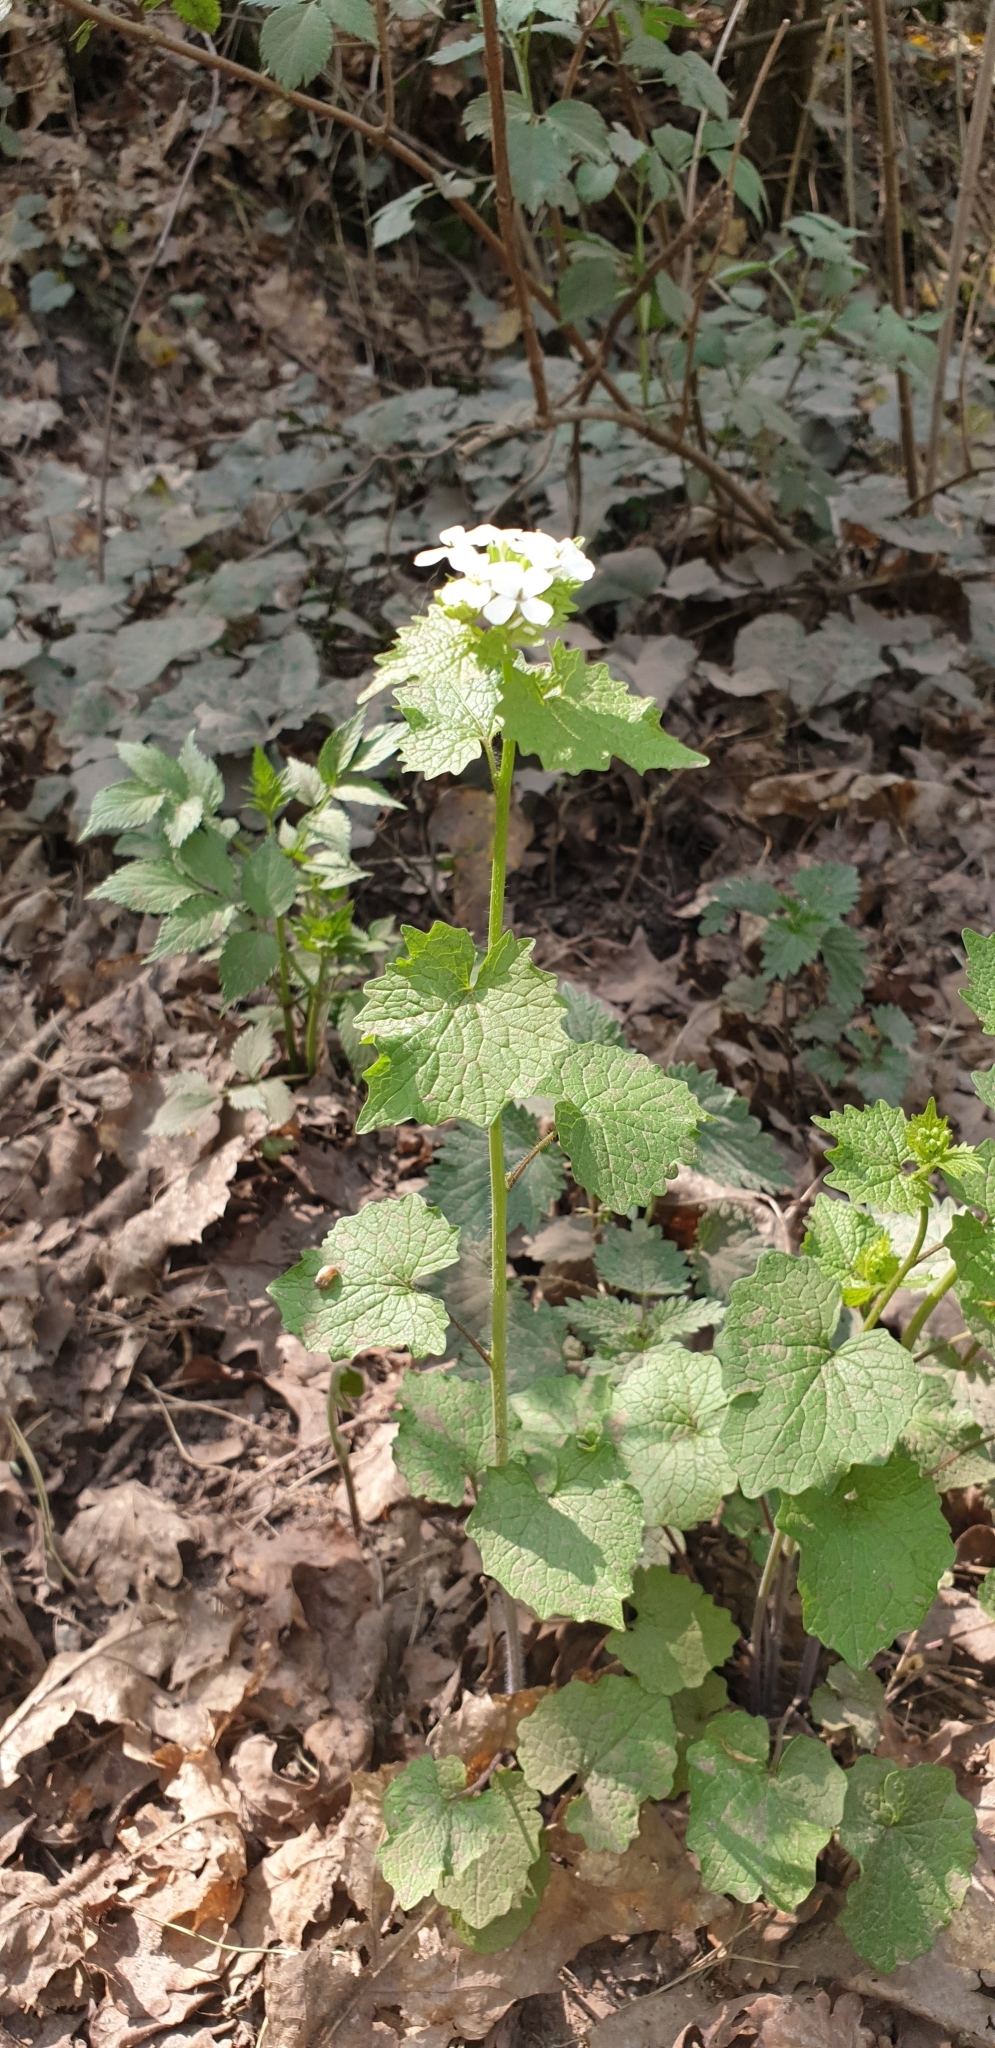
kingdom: Plantae
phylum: Tracheophyta
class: Magnoliopsida
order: Brassicales
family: Brassicaceae
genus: Alliaria
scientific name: Alliaria petiolata
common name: Garlic mustard
